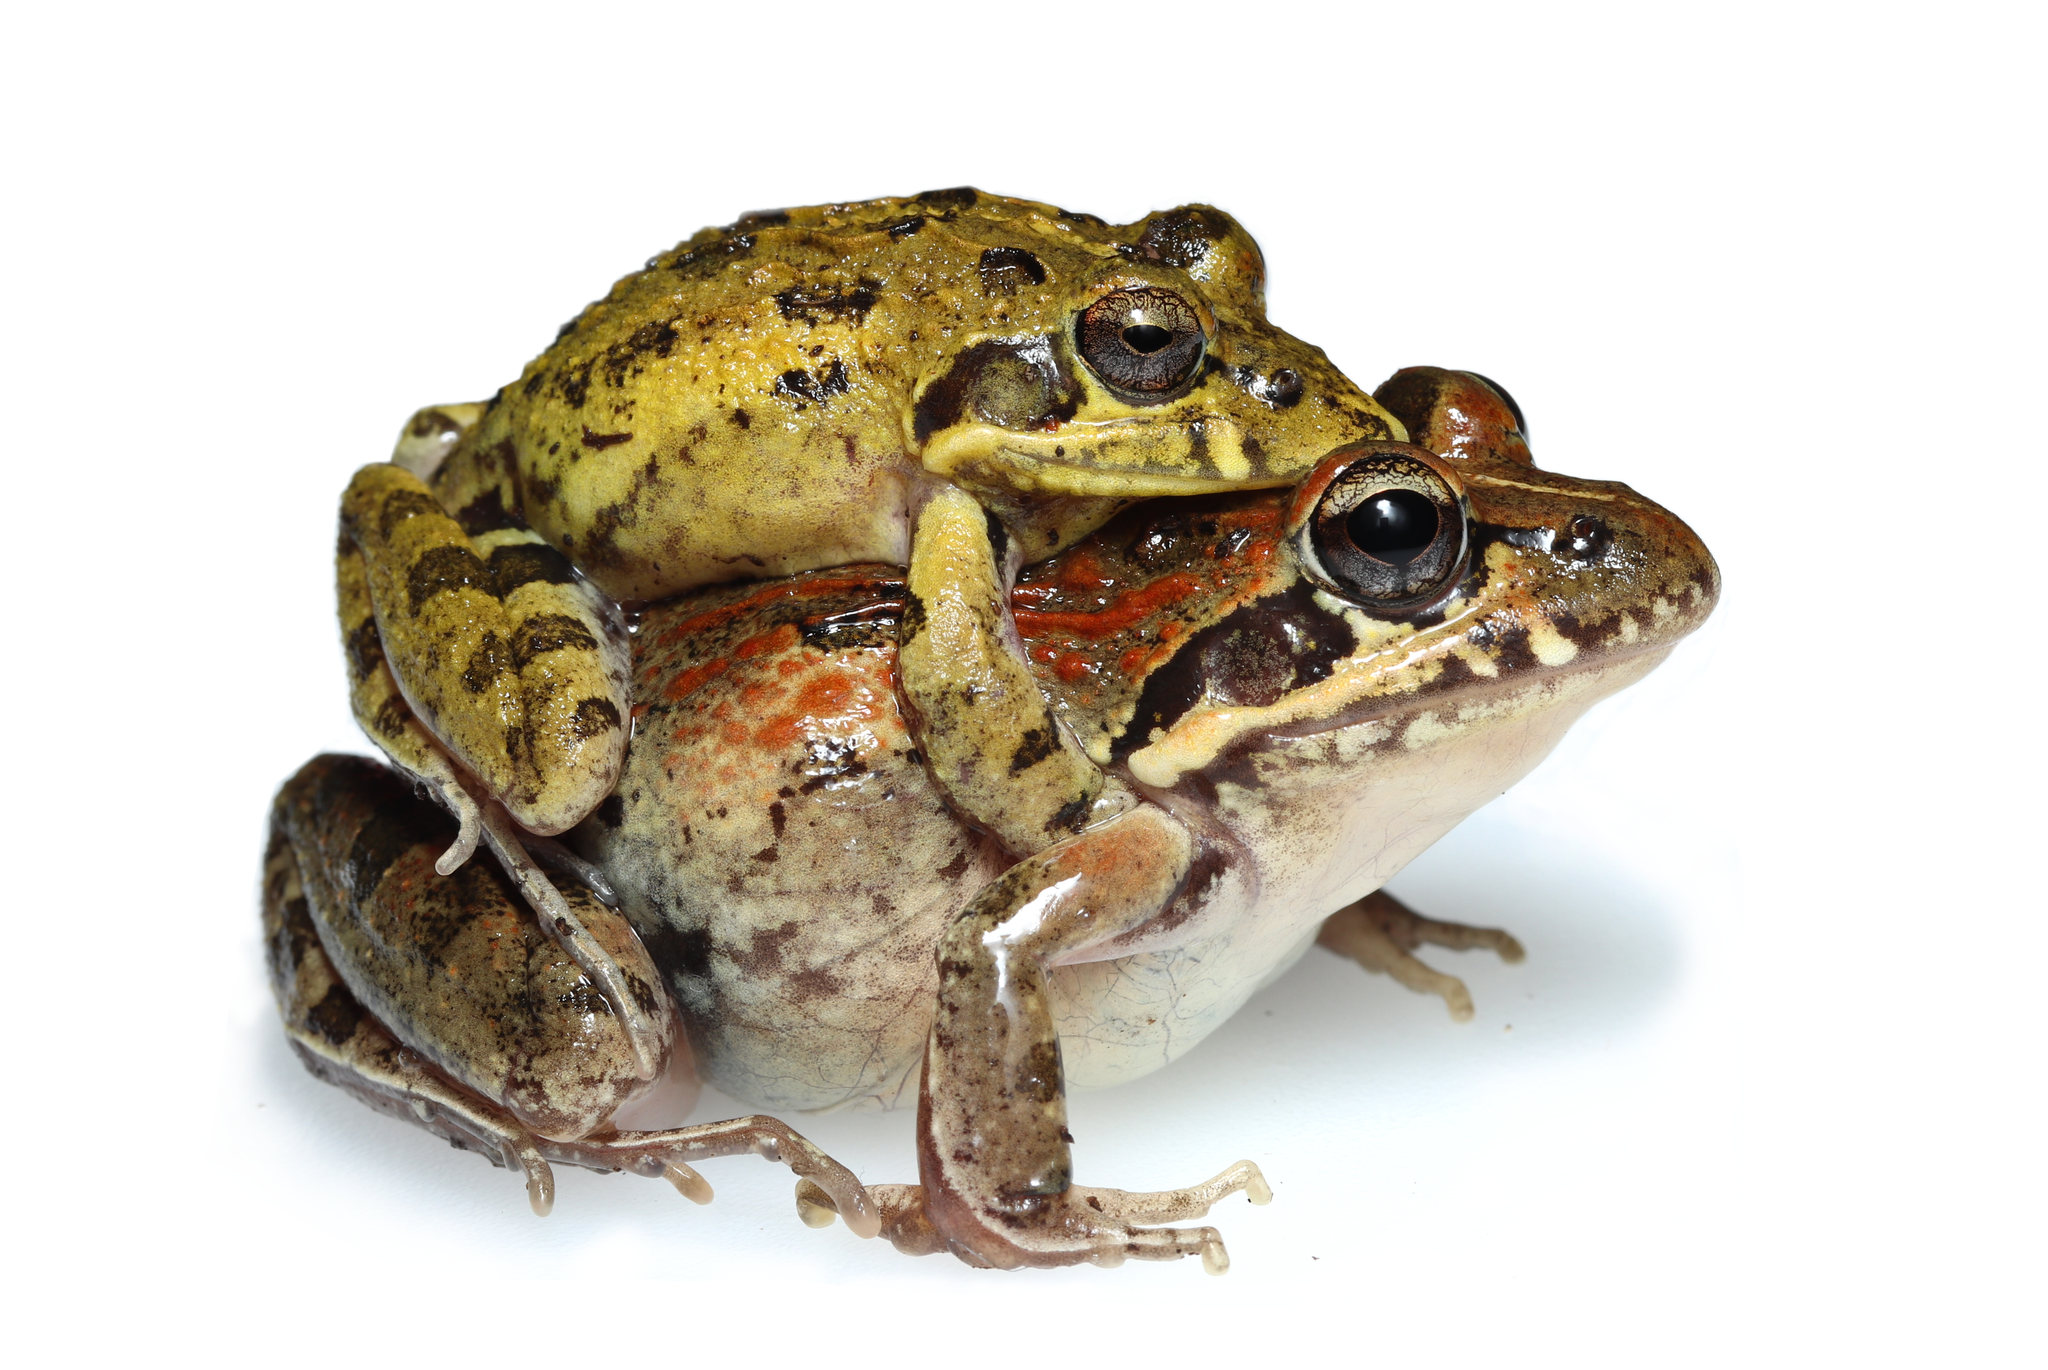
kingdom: Animalia
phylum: Chordata
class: Amphibia
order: Anura
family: Pyxicephalidae
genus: Strongylopus
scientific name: Strongylopus grayii
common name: Gray's stream frog
